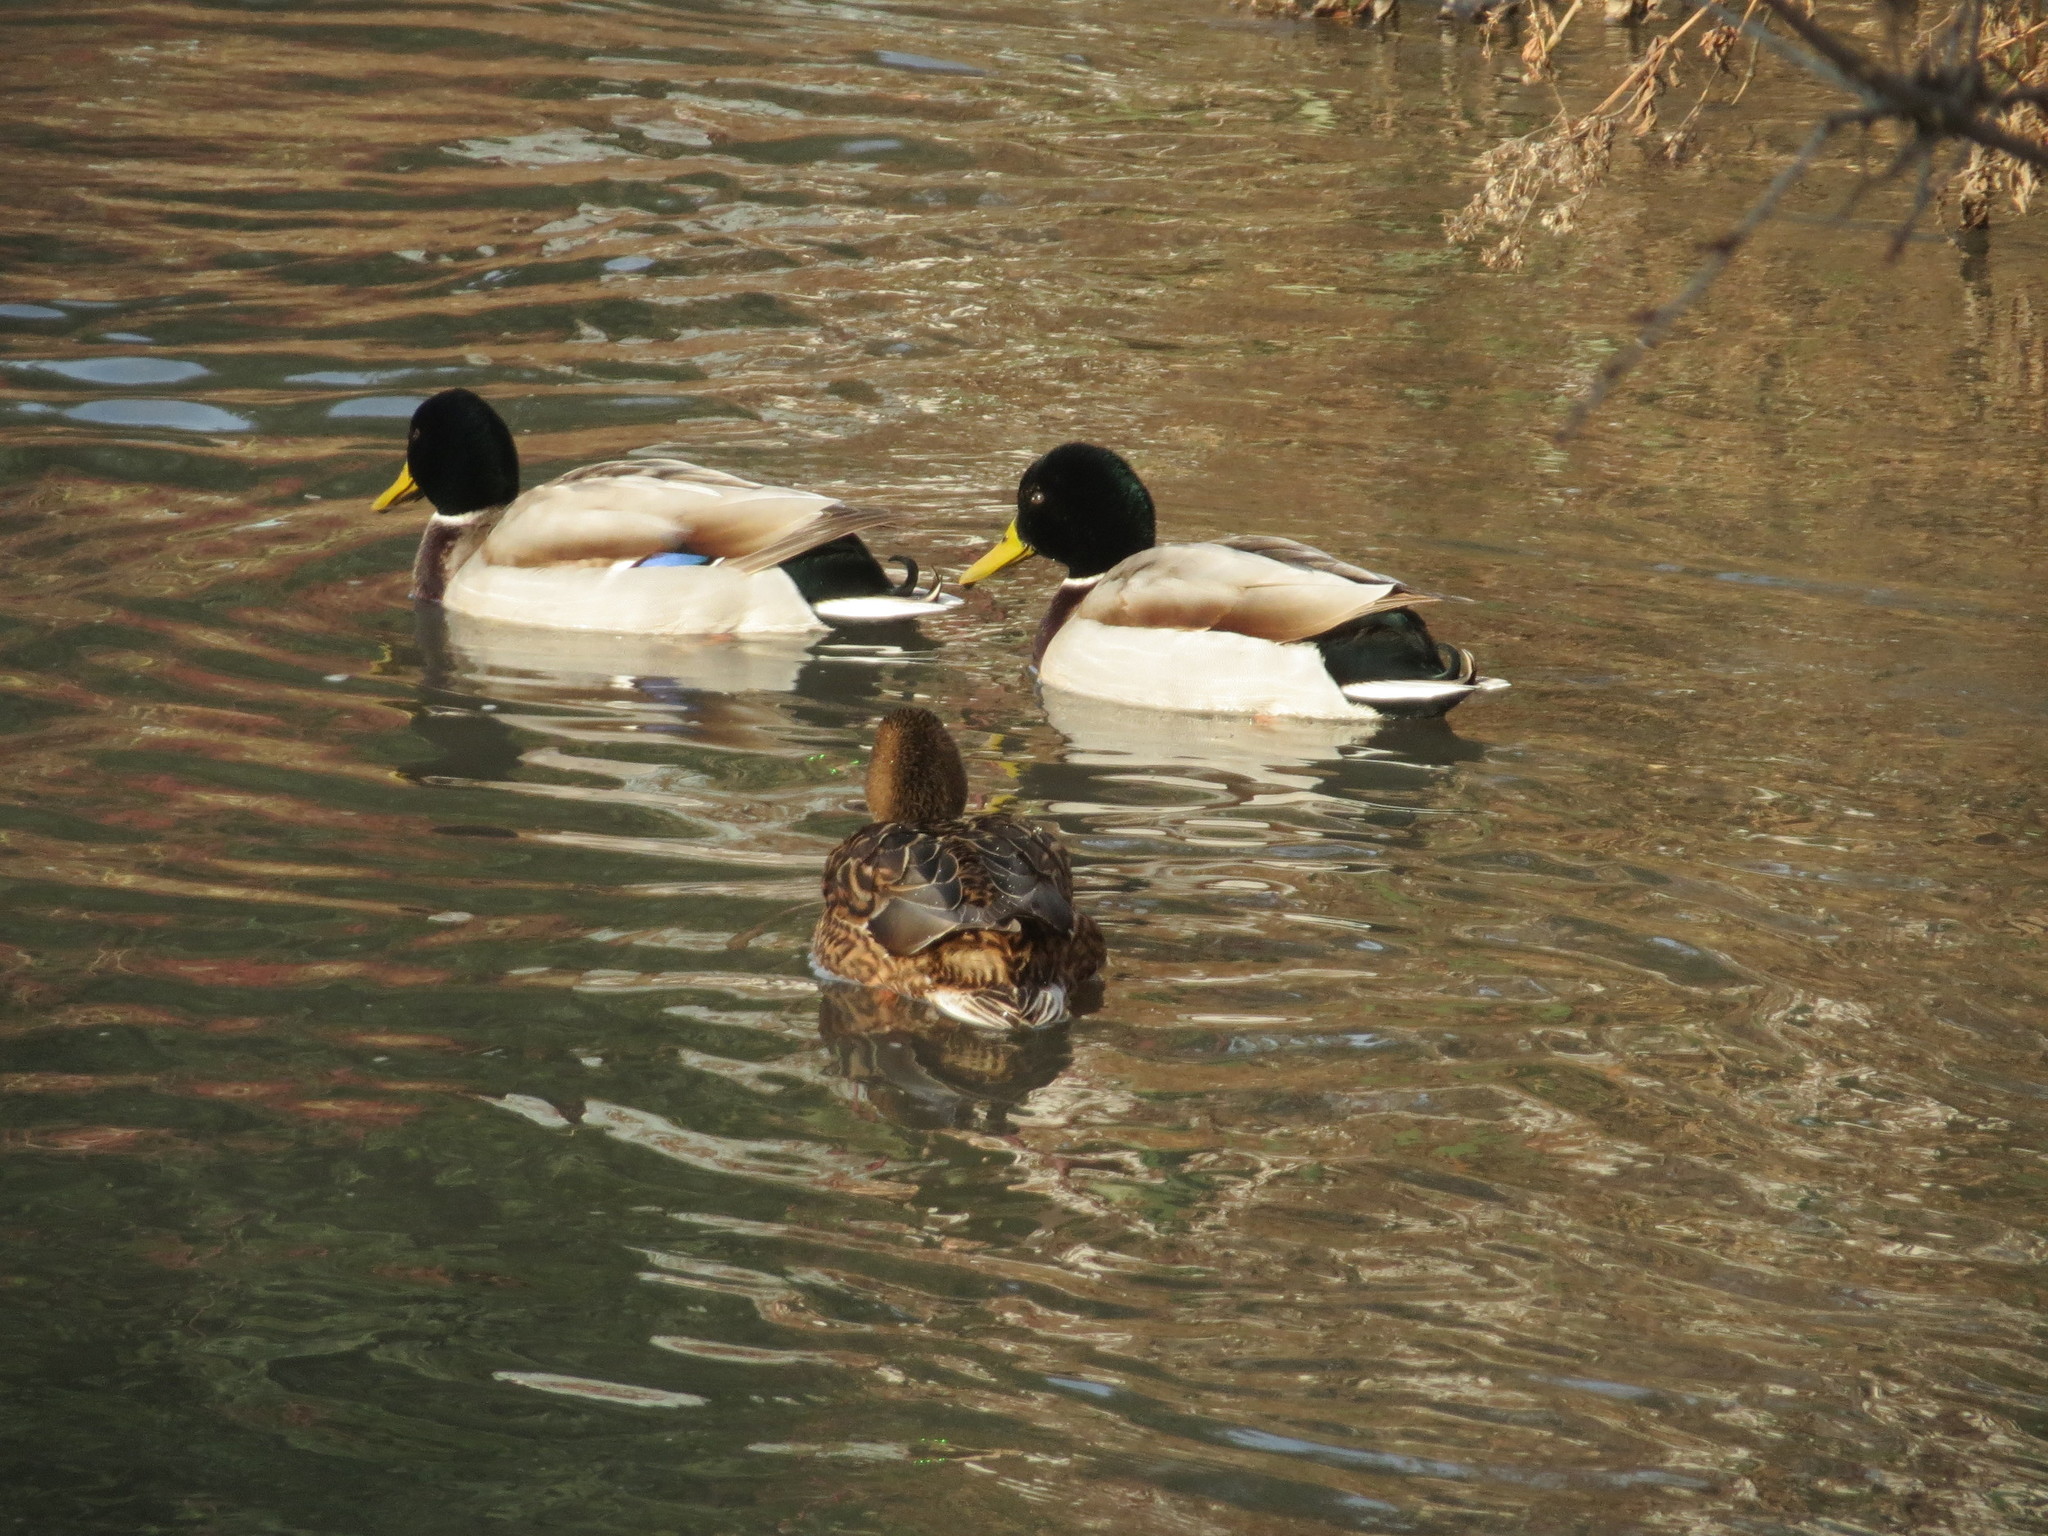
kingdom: Animalia
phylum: Chordata
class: Aves
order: Anseriformes
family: Anatidae
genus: Anas
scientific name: Anas platyrhynchos
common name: Mallard
